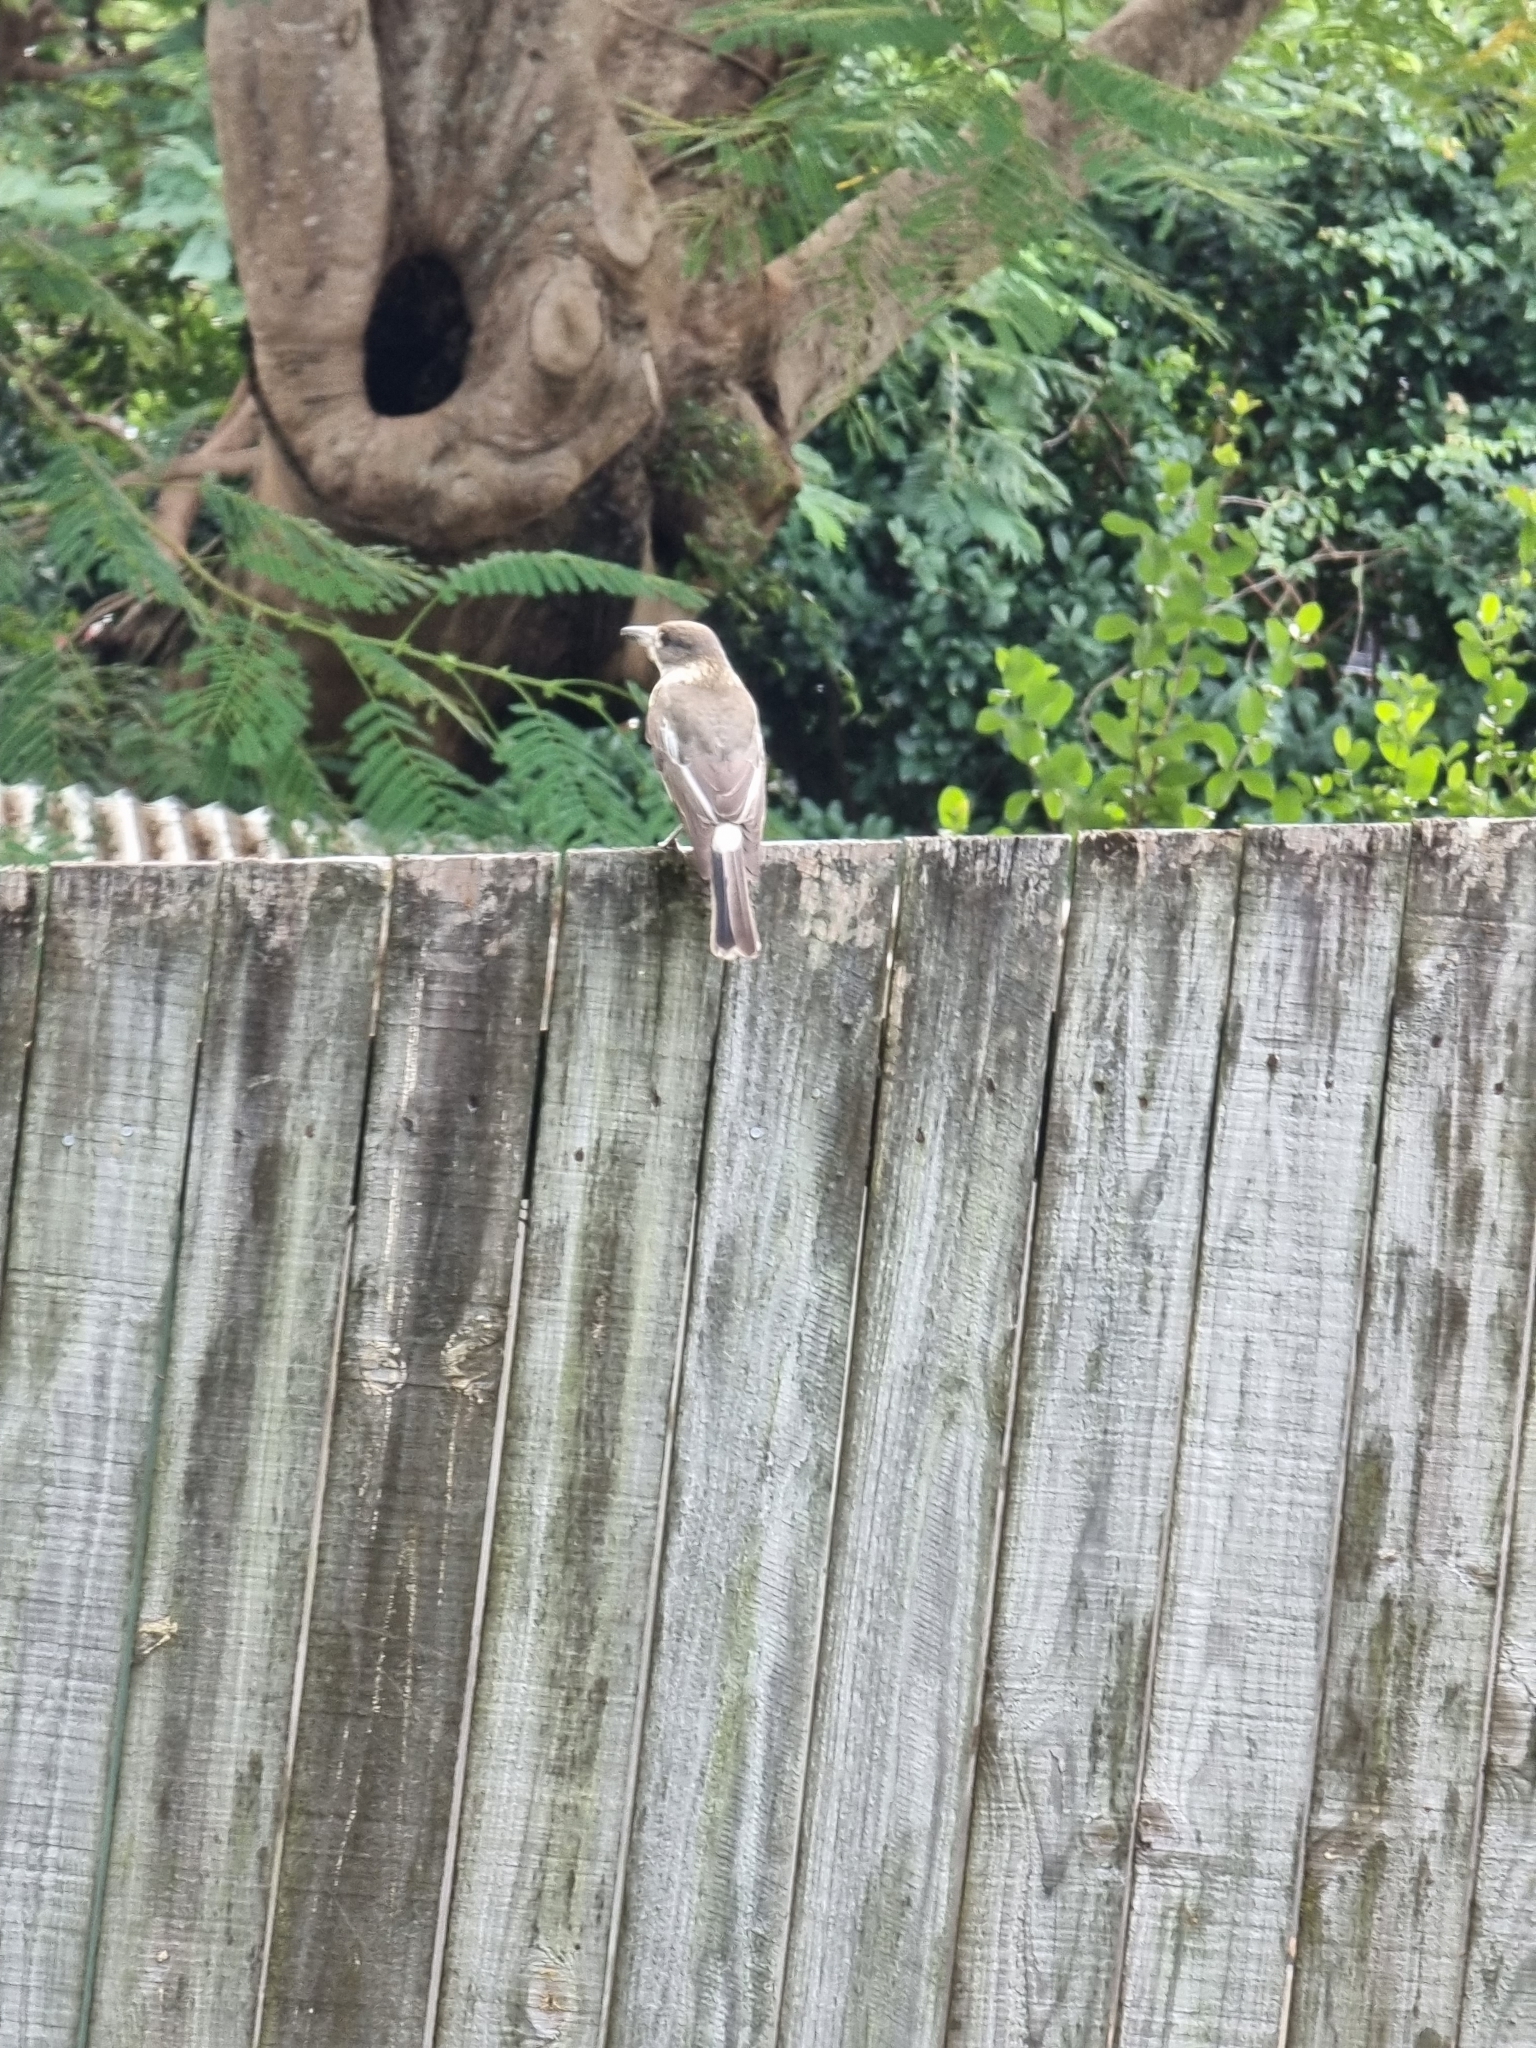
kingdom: Animalia
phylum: Chordata
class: Aves
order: Passeriformes
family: Cracticidae
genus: Cracticus
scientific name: Cracticus torquatus
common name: Grey butcherbird
